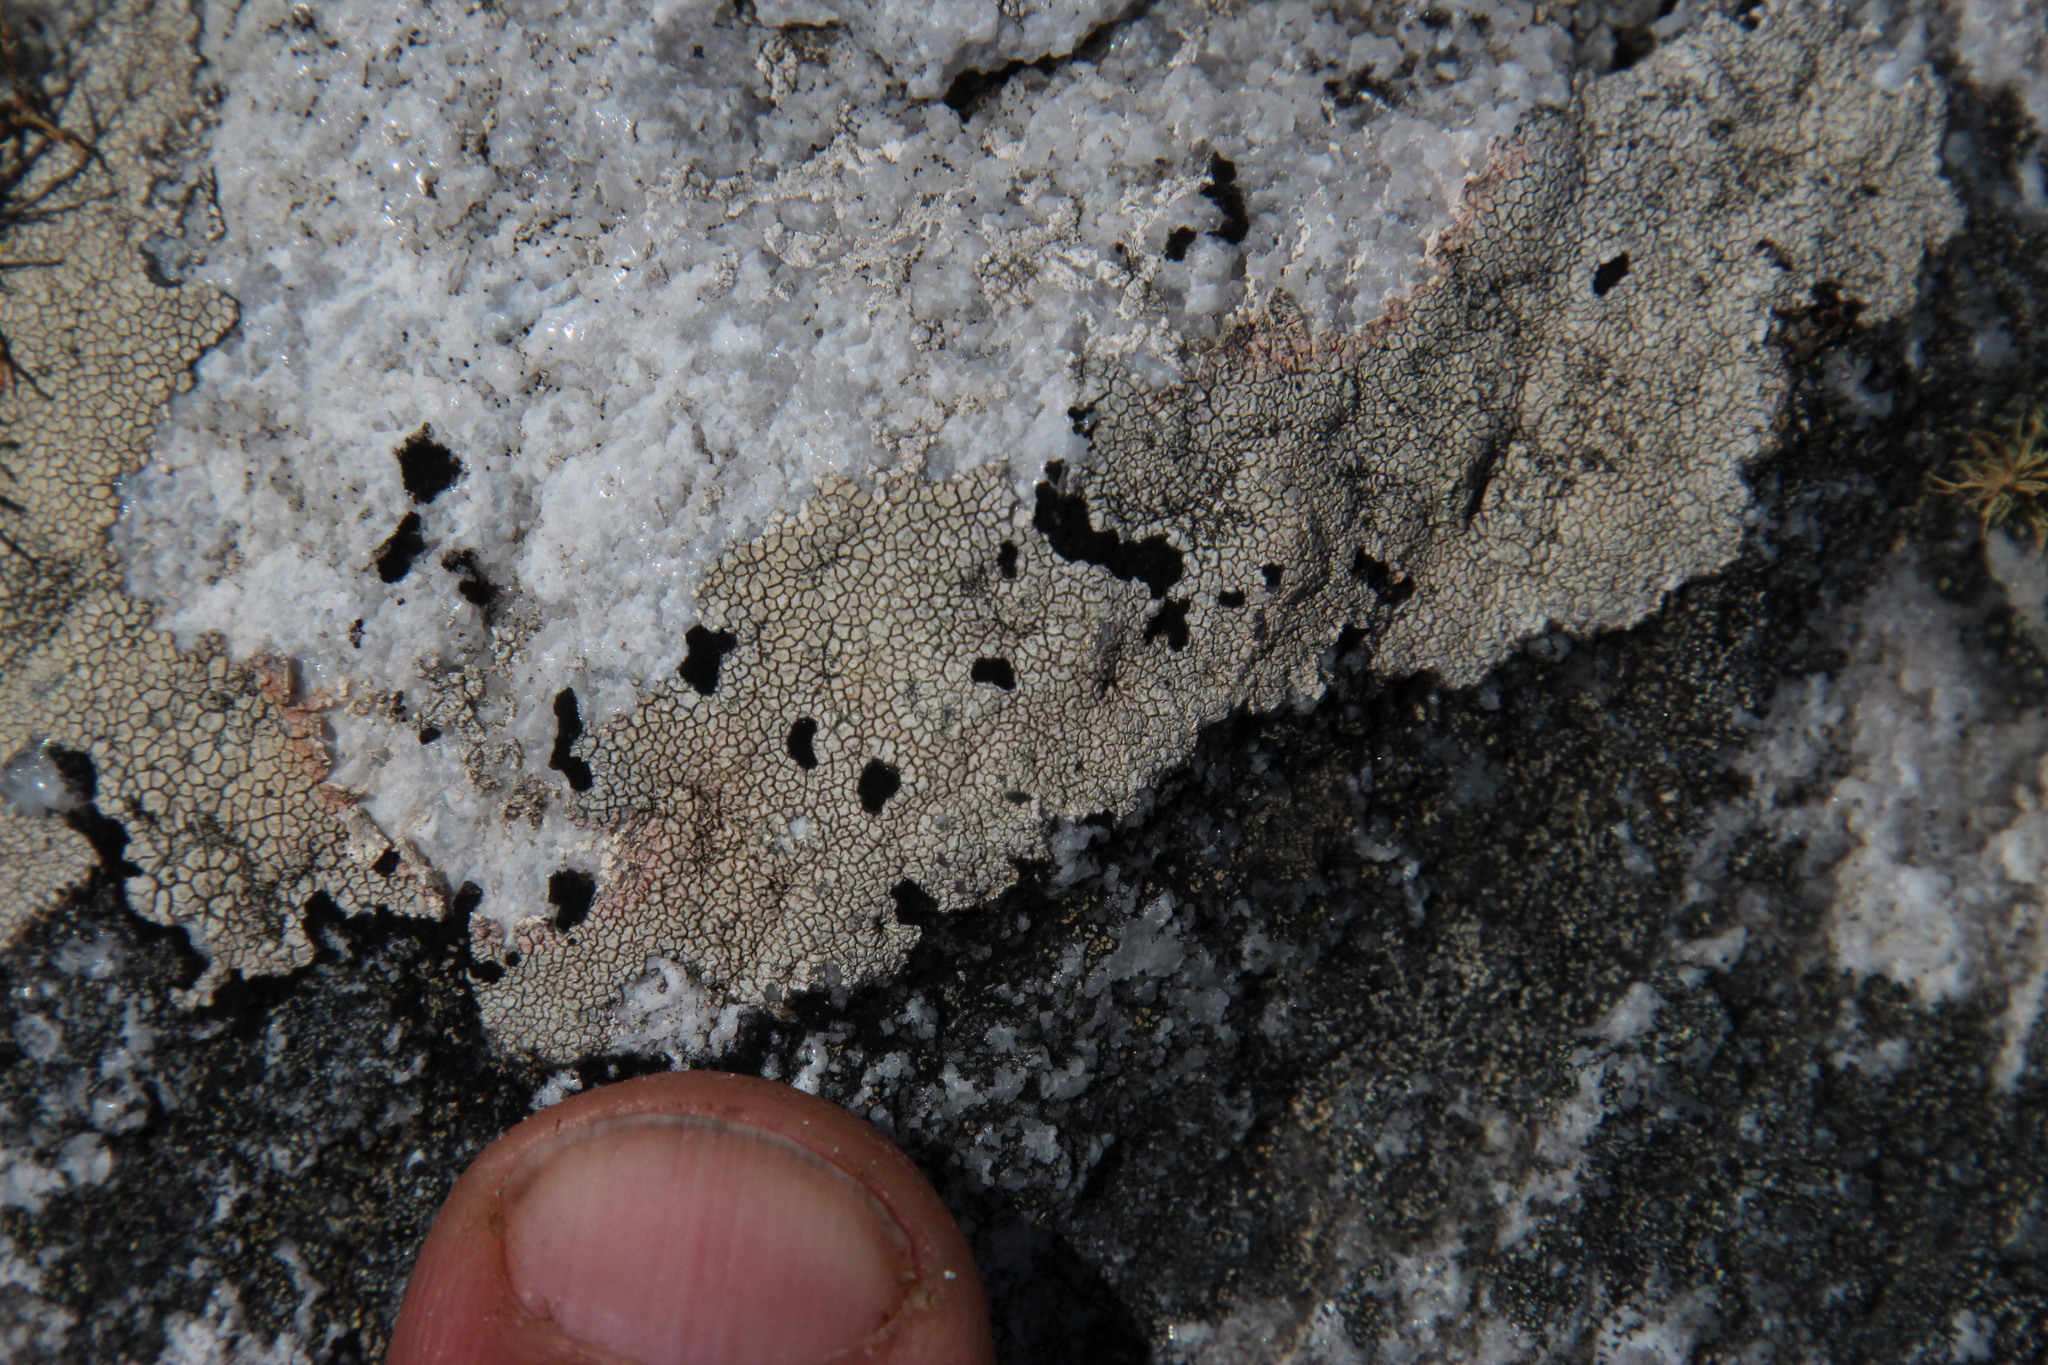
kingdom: Fungi
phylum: Ascomycota
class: Lecanoromycetes
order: Umbilicariales
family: Umbilicariaceae
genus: Lasallia
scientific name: Lasallia rubiginosa
